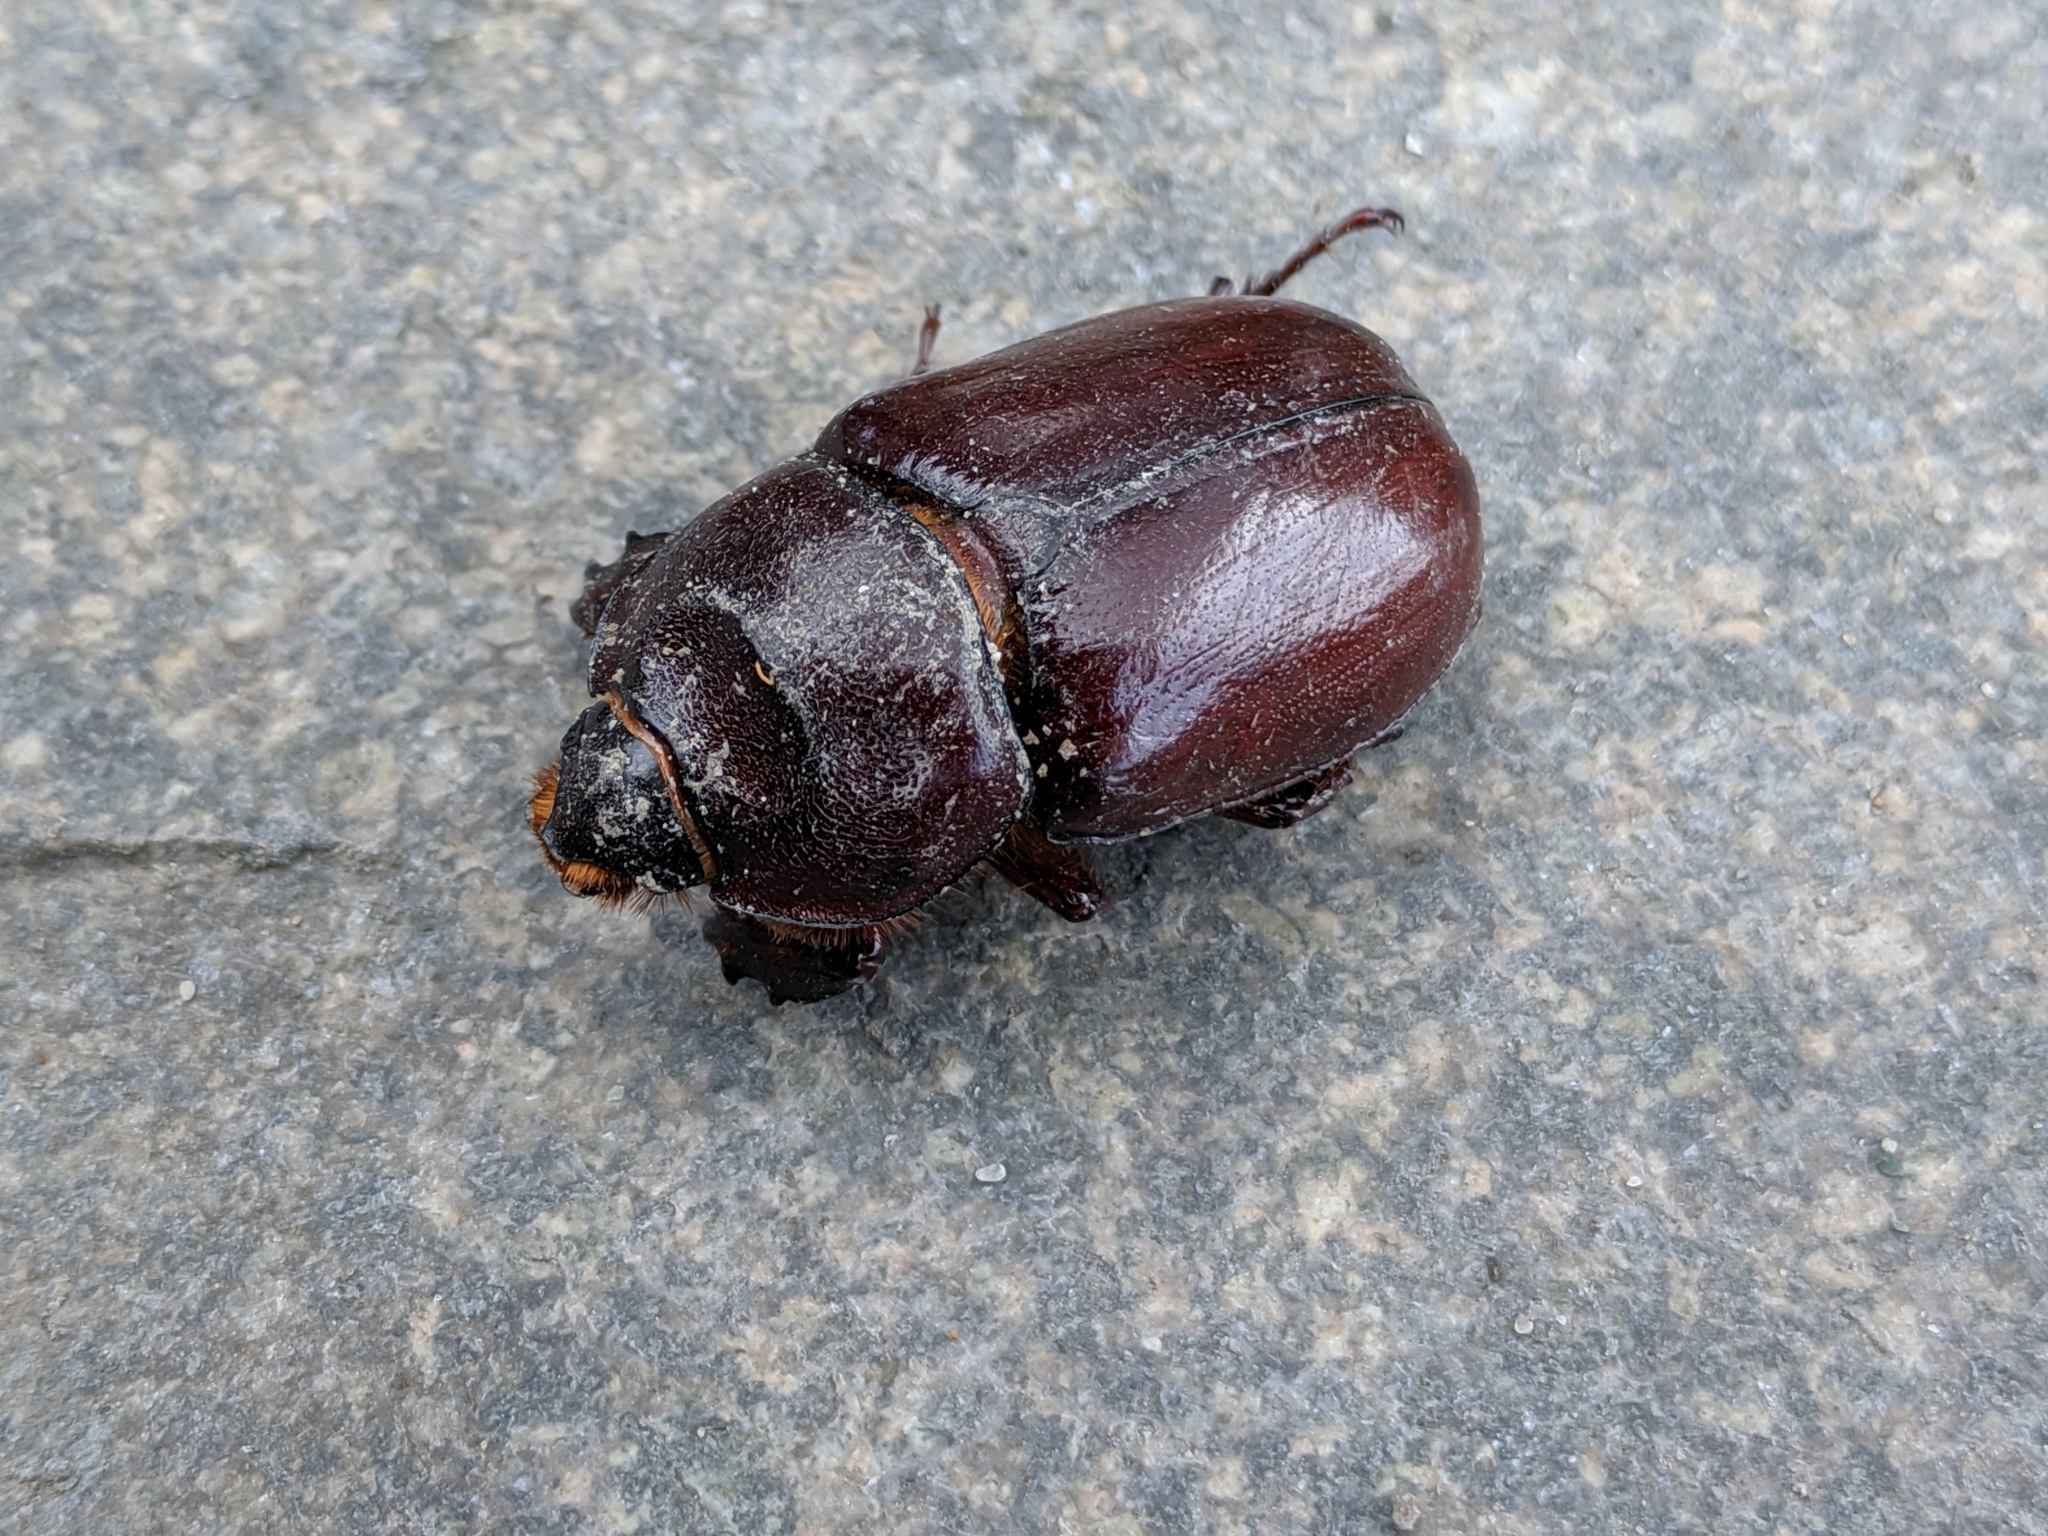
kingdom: Animalia
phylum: Arthropoda
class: Insecta
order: Coleoptera
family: Scarabaeidae
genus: Oryctes
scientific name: Oryctes nasicornis
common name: European rhinoceros beetle
